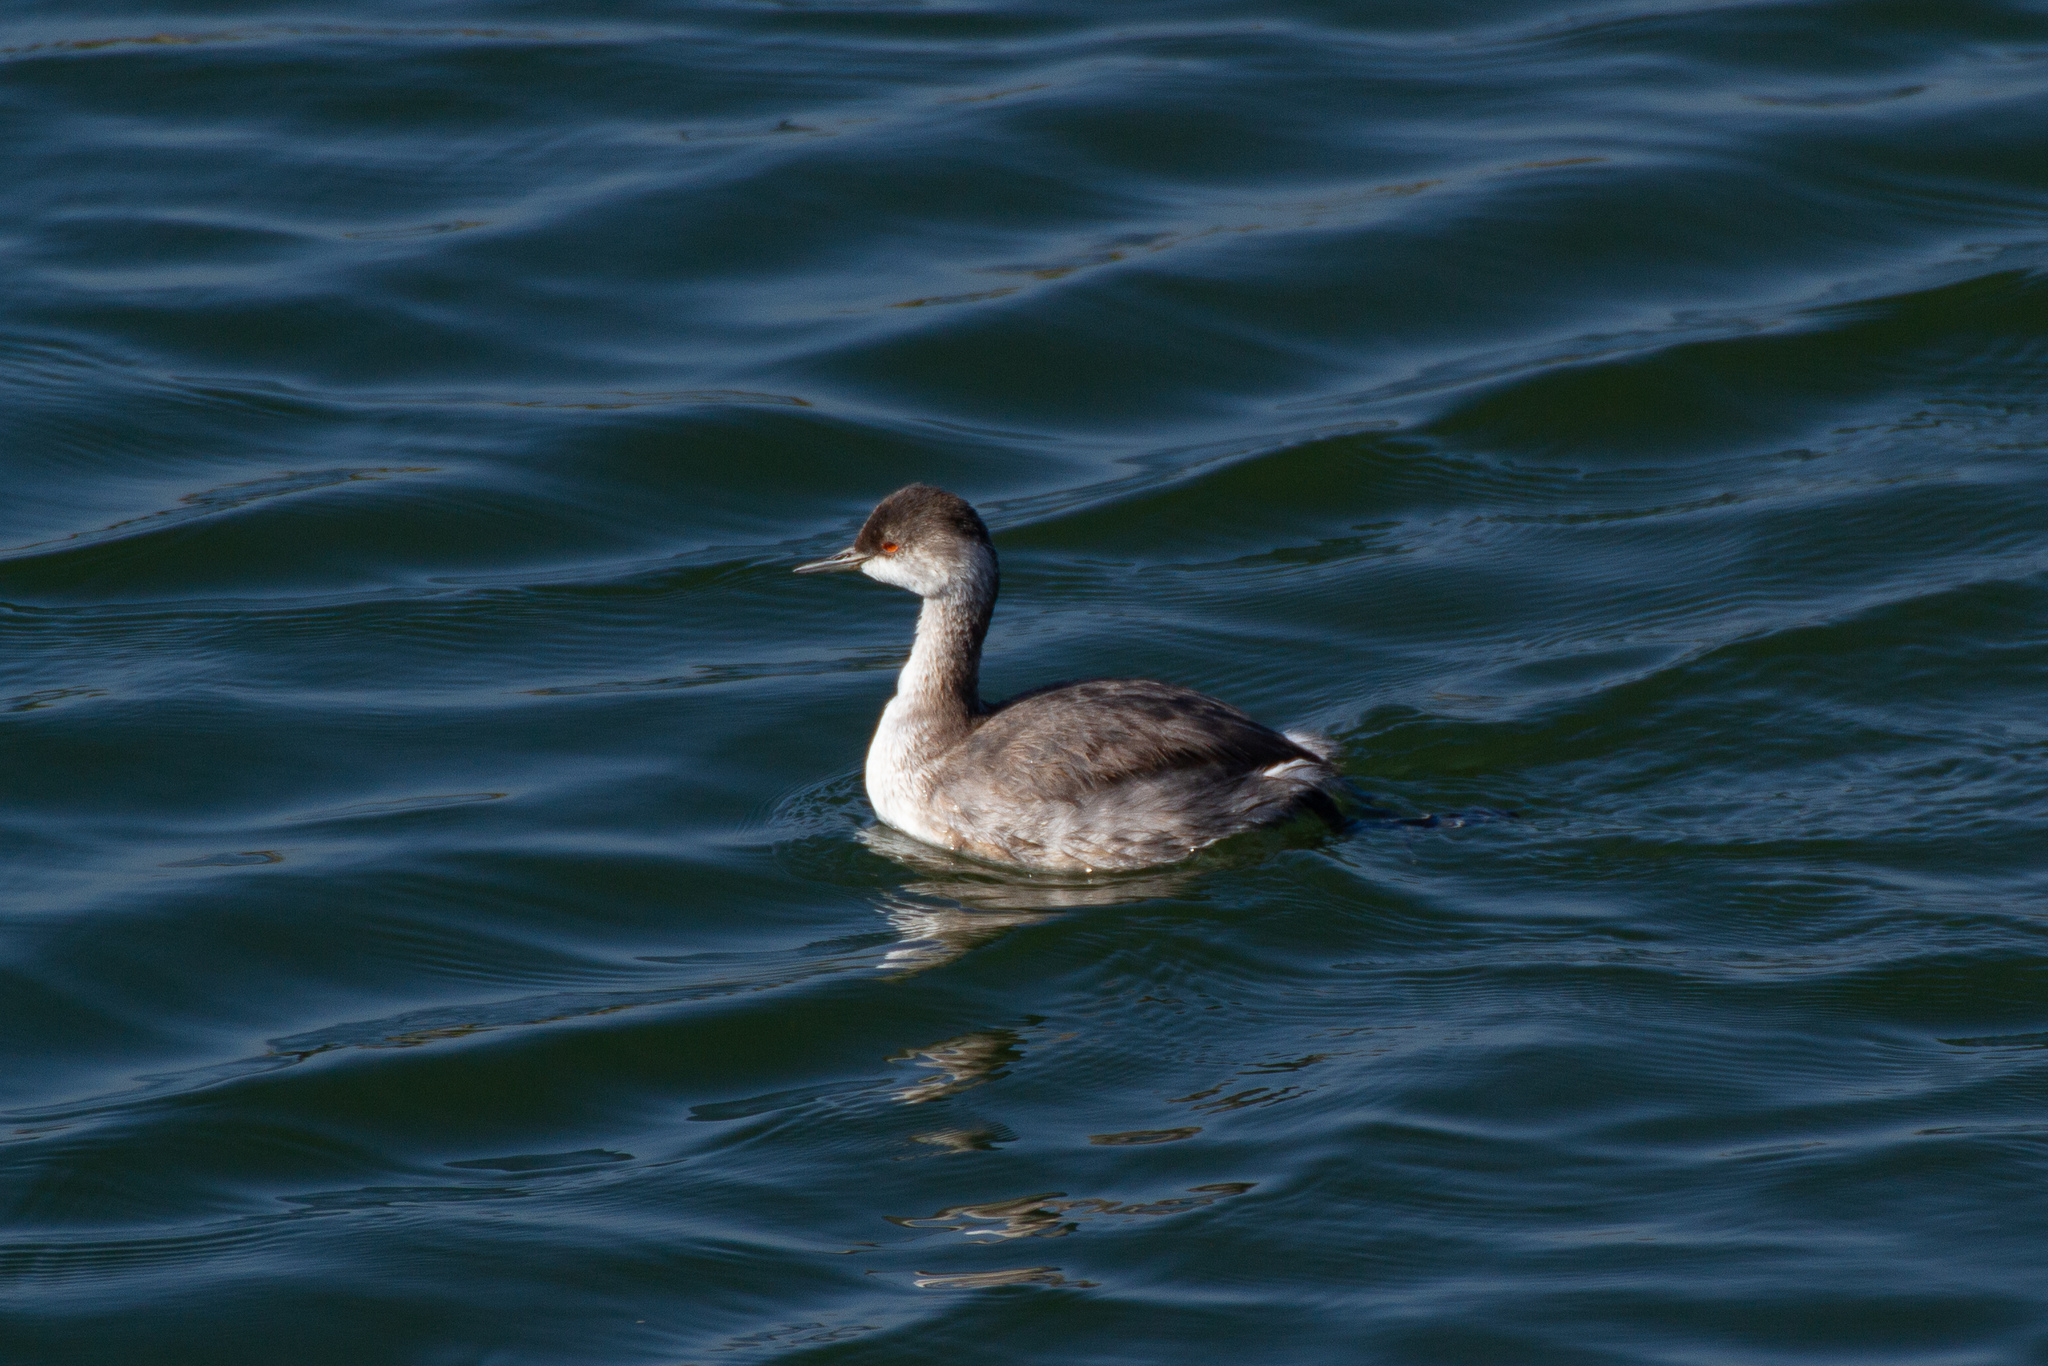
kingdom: Animalia
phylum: Chordata
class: Aves
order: Podicipediformes
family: Podicipedidae
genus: Podiceps
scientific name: Podiceps nigricollis
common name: Black-necked grebe
